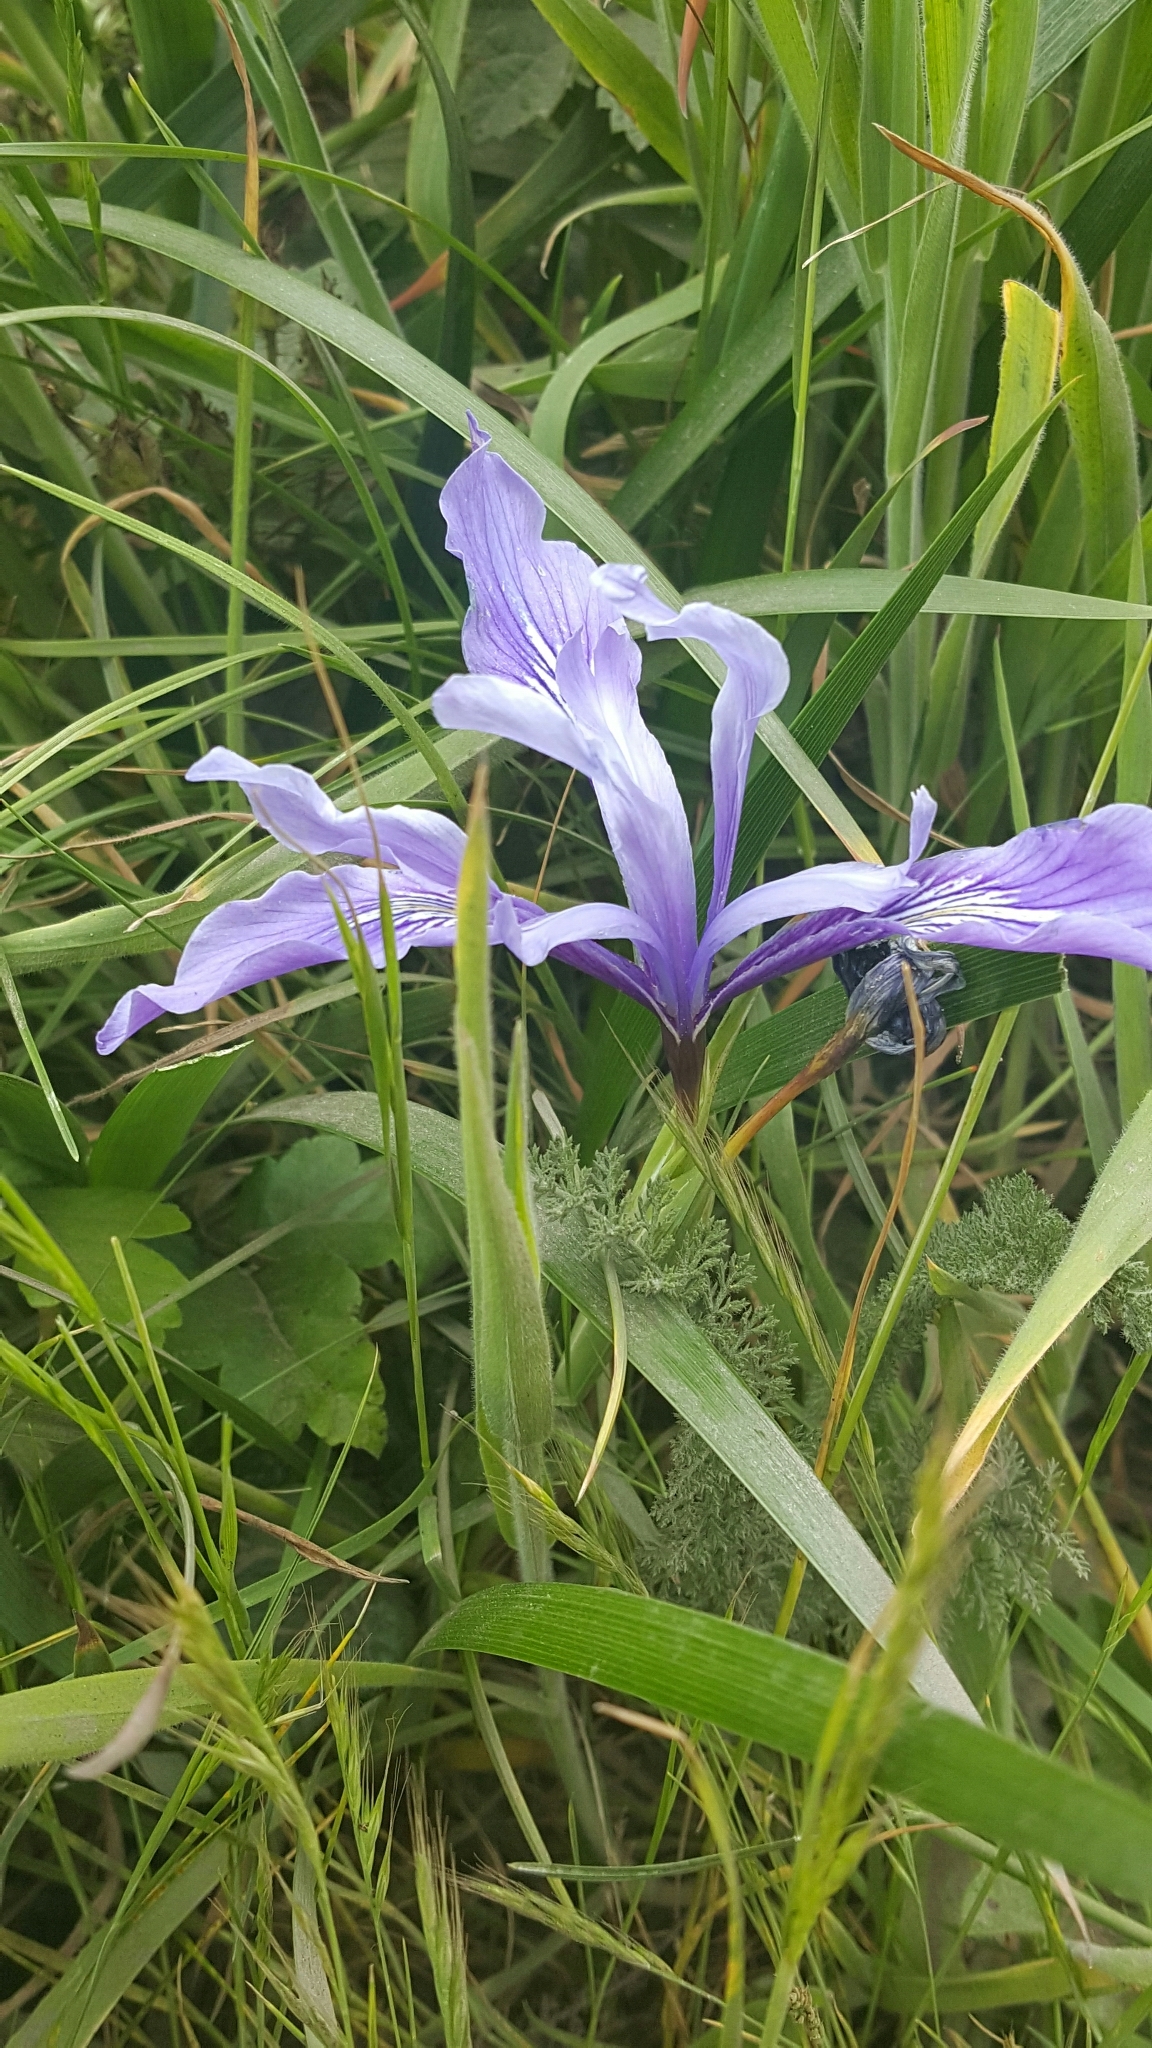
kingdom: Plantae
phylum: Tracheophyta
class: Liliopsida
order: Asparagales
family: Iridaceae
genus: Iris
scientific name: Iris douglasiana
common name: Marin iris
